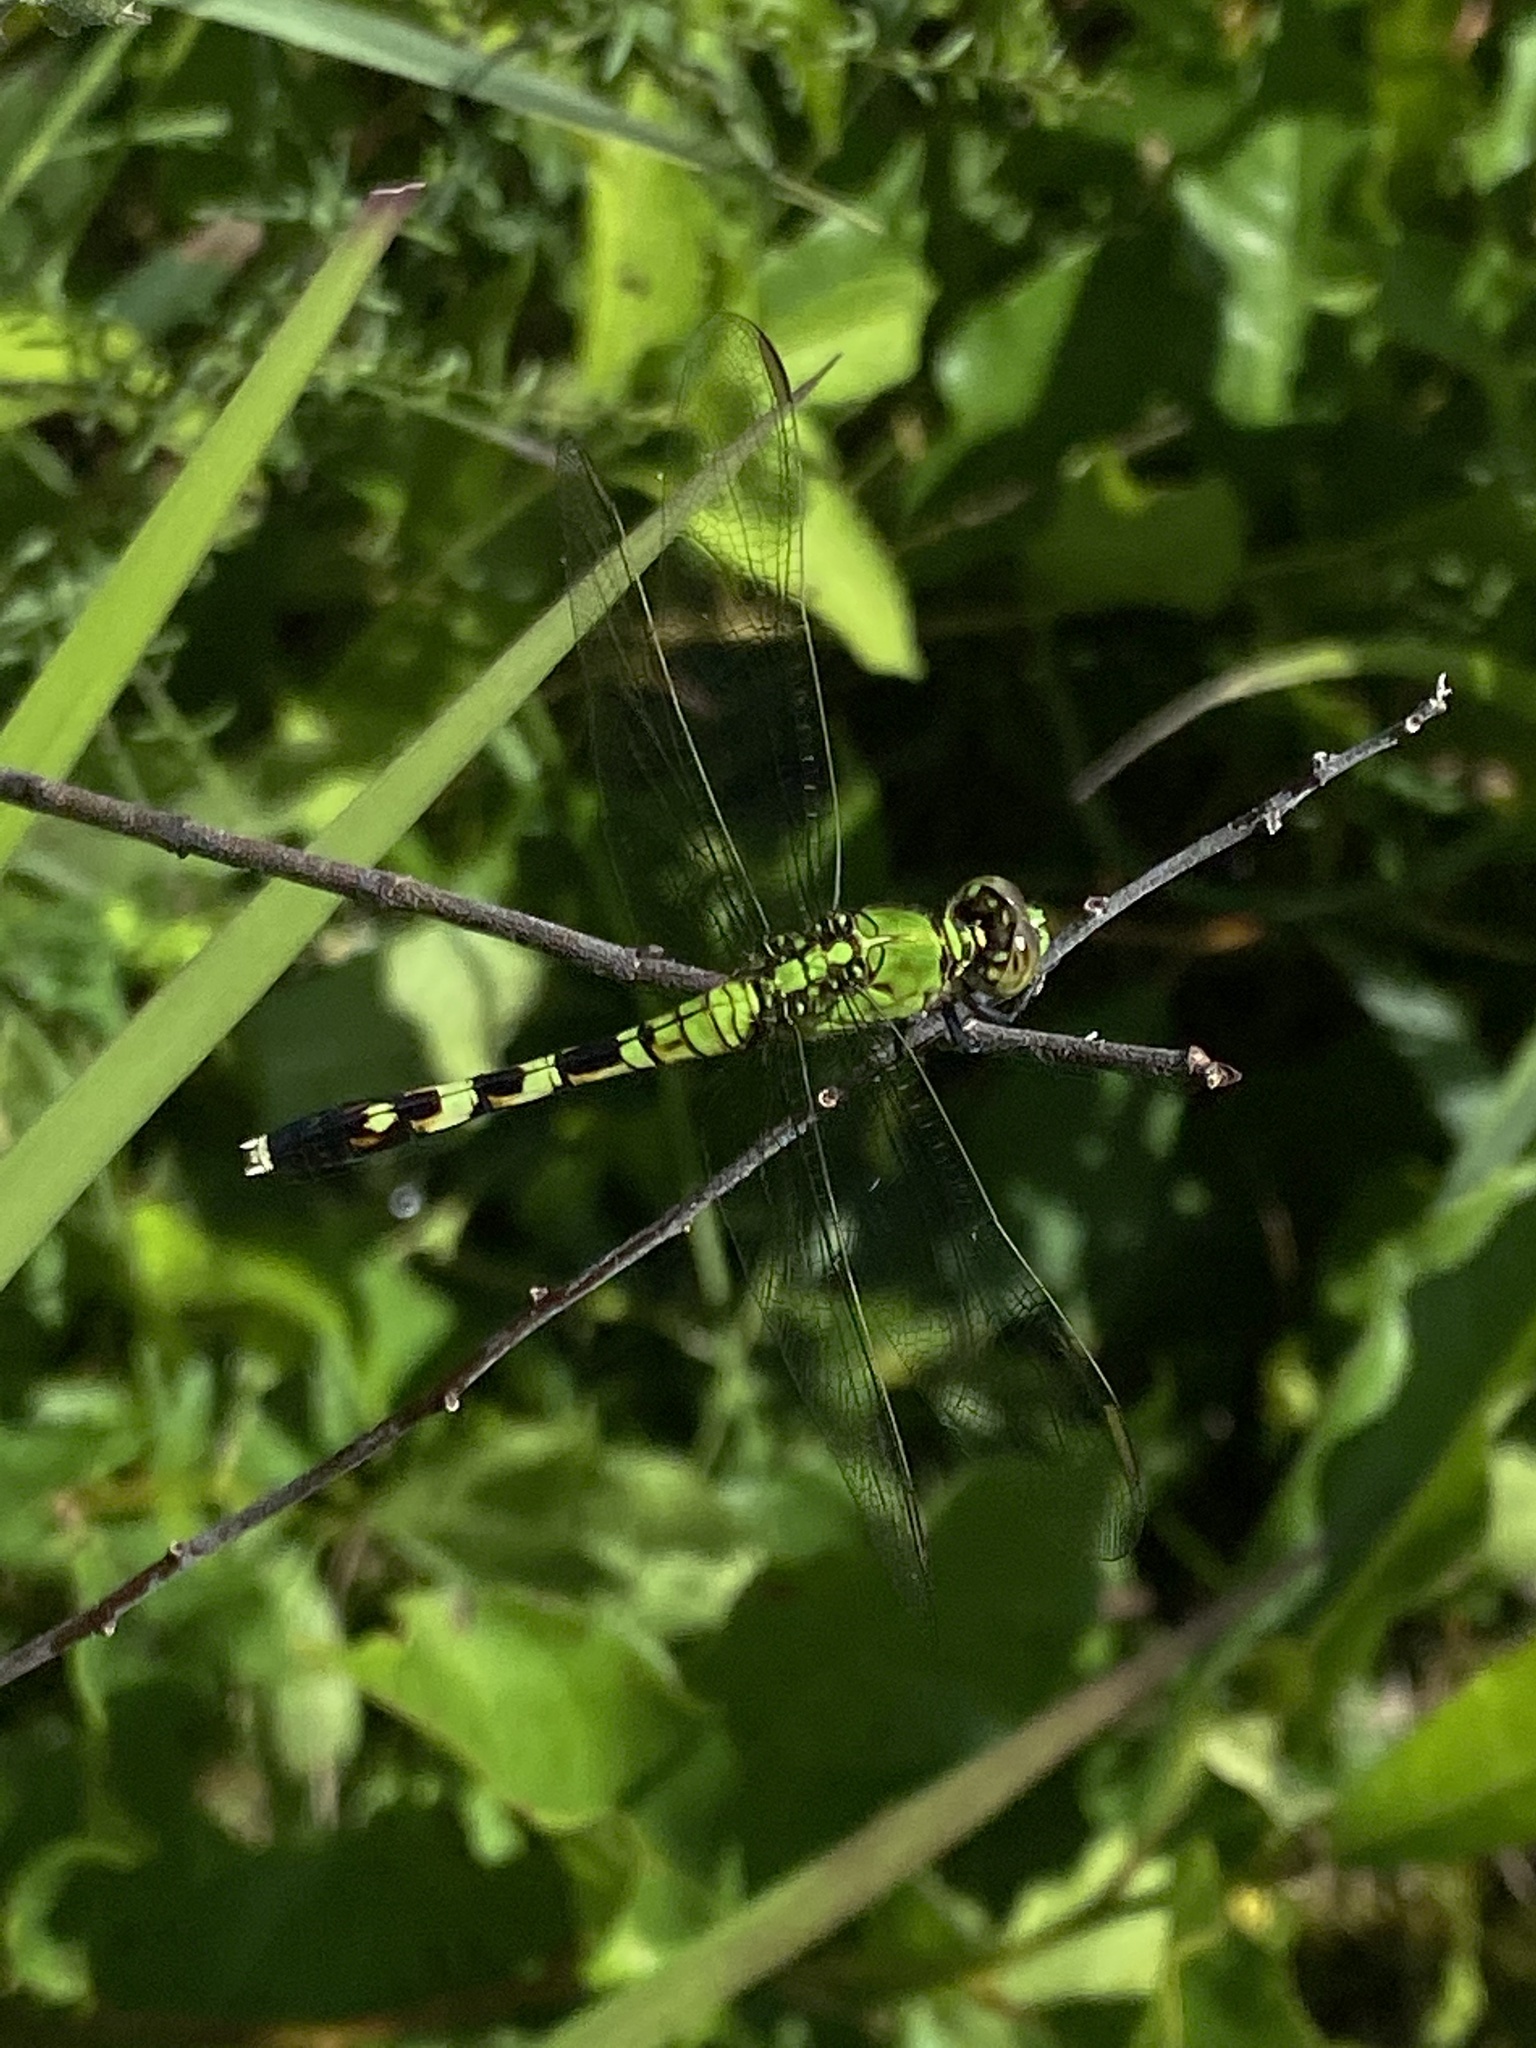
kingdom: Animalia
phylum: Arthropoda
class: Insecta
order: Odonata
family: Libellulidae
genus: Erythemis
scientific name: Erythemis simplicicollis
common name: Eastern pondhawk
